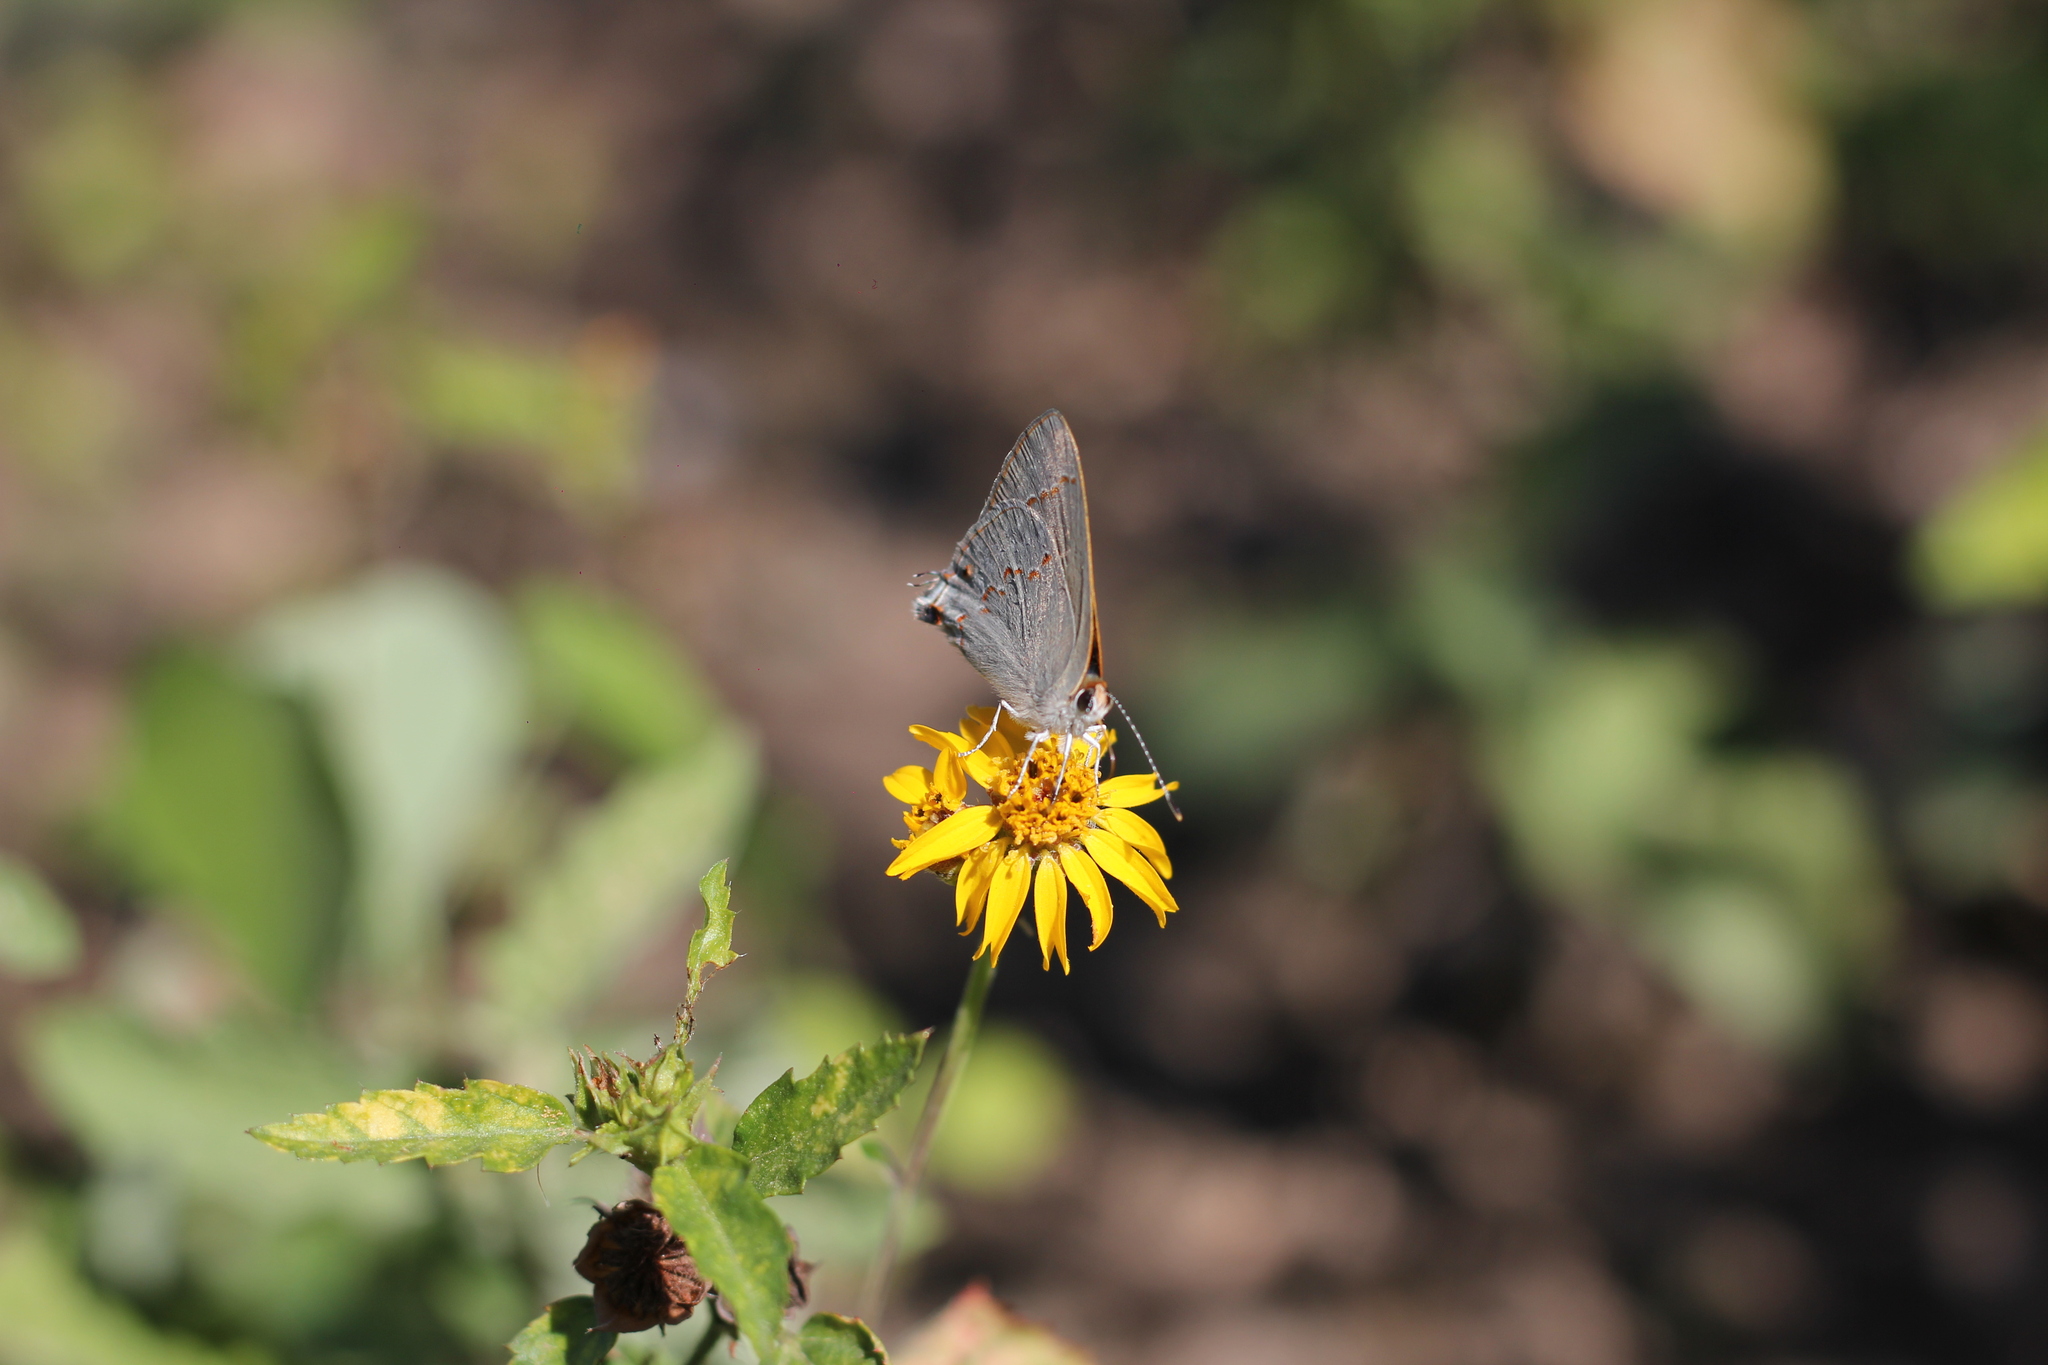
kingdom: Animalia
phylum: Arthropoda
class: Insecta
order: Lepidoptera
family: Lycaenidae
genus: Thecla
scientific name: Thecla rufofusca
